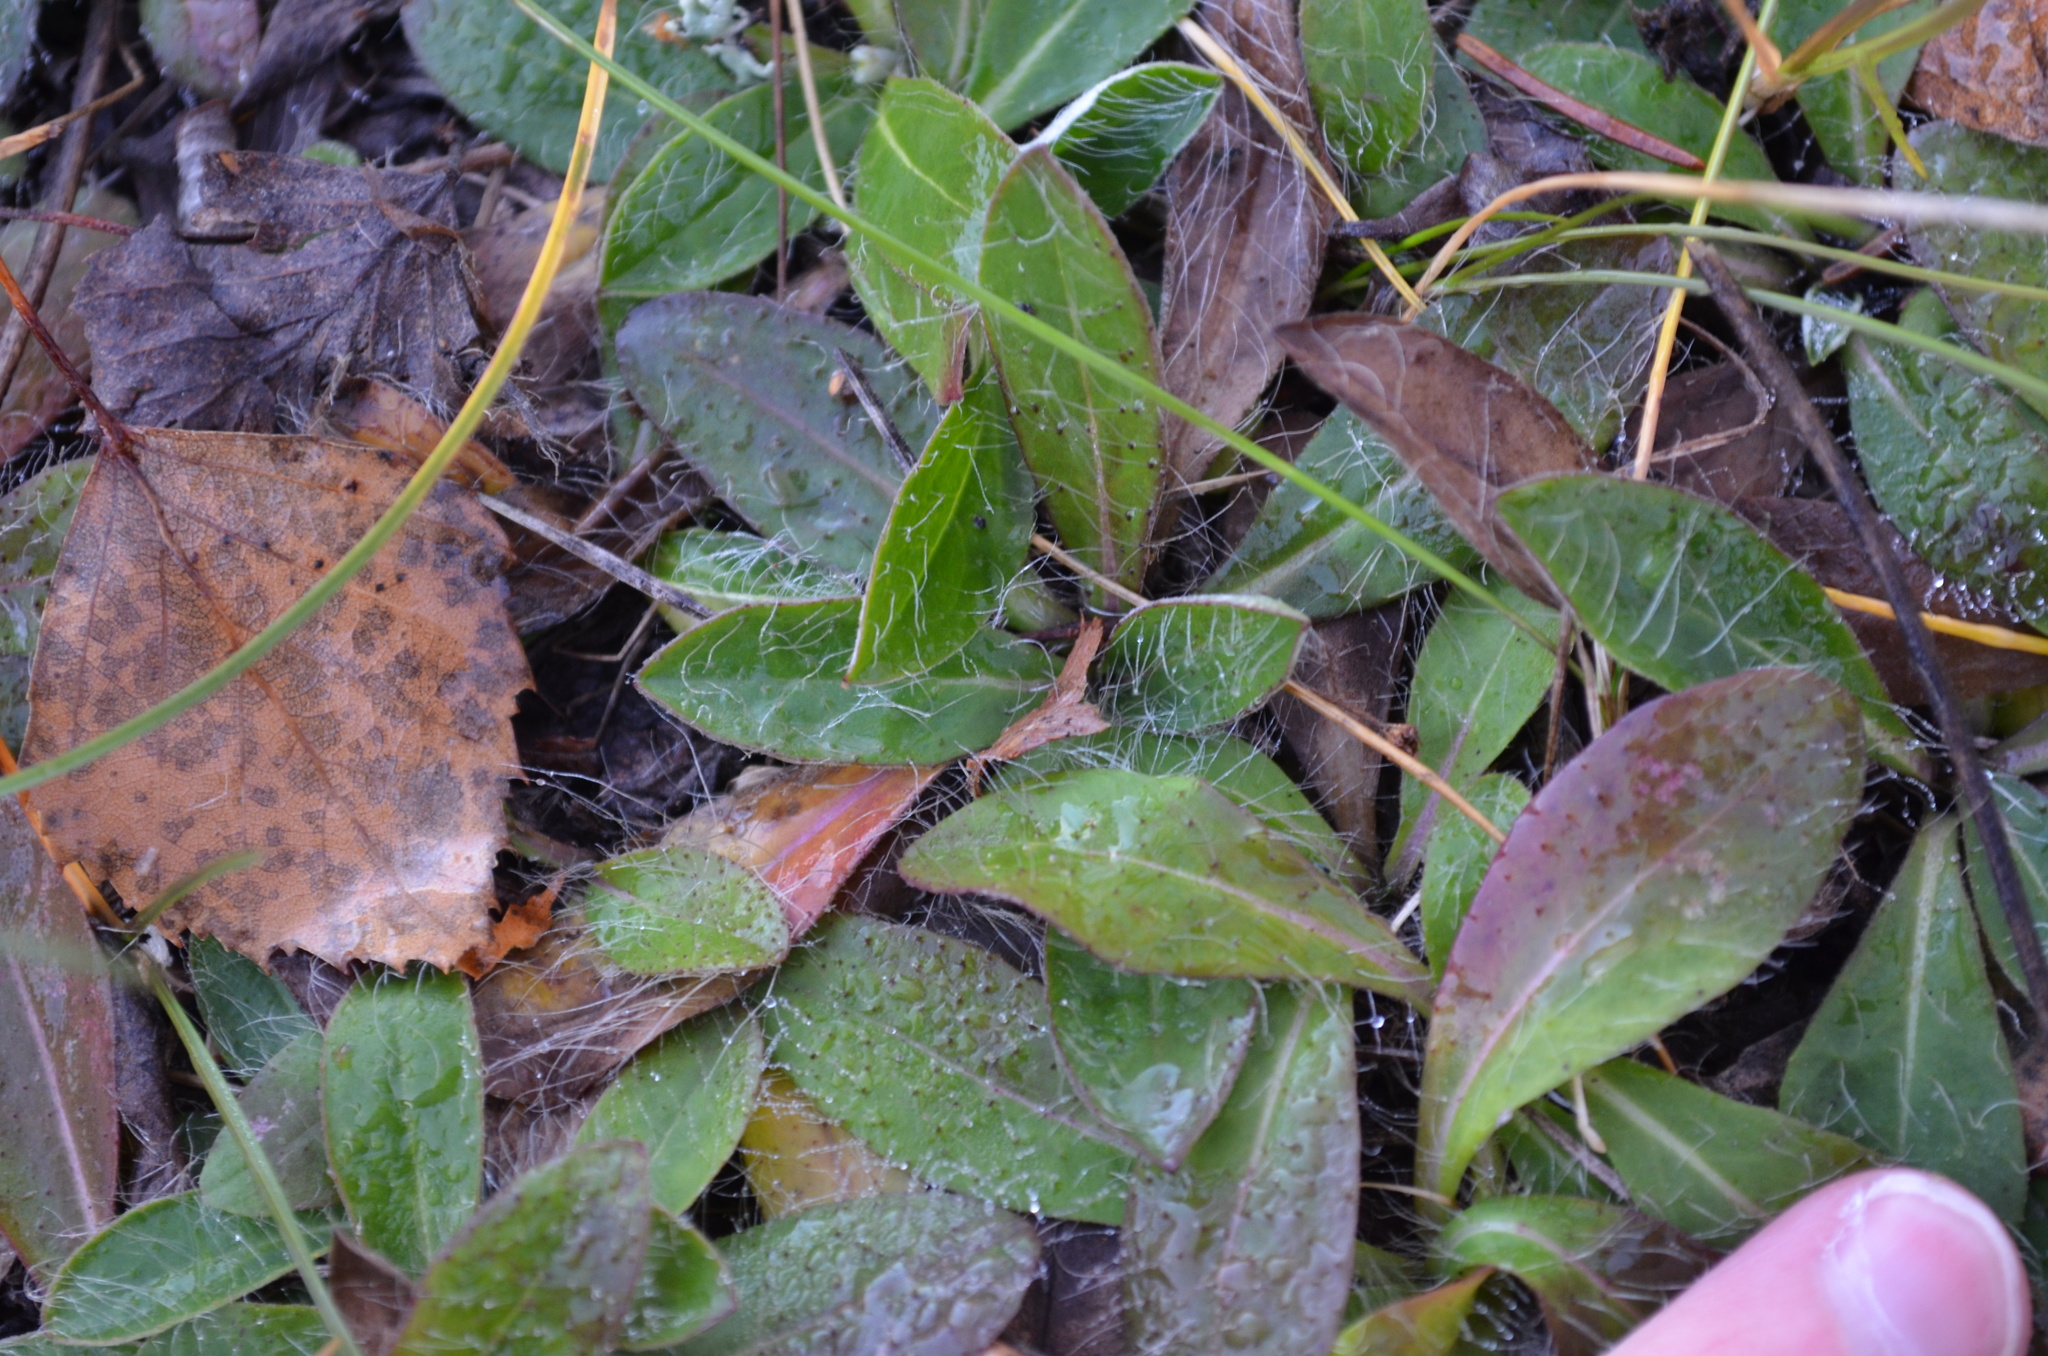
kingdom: Plantae
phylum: Tracheophyta
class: Magnoliopsida
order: Asterales
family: Asteraceae
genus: Pilosella
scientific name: Pilosella officinarum
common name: Mouse-ear hawkweed
